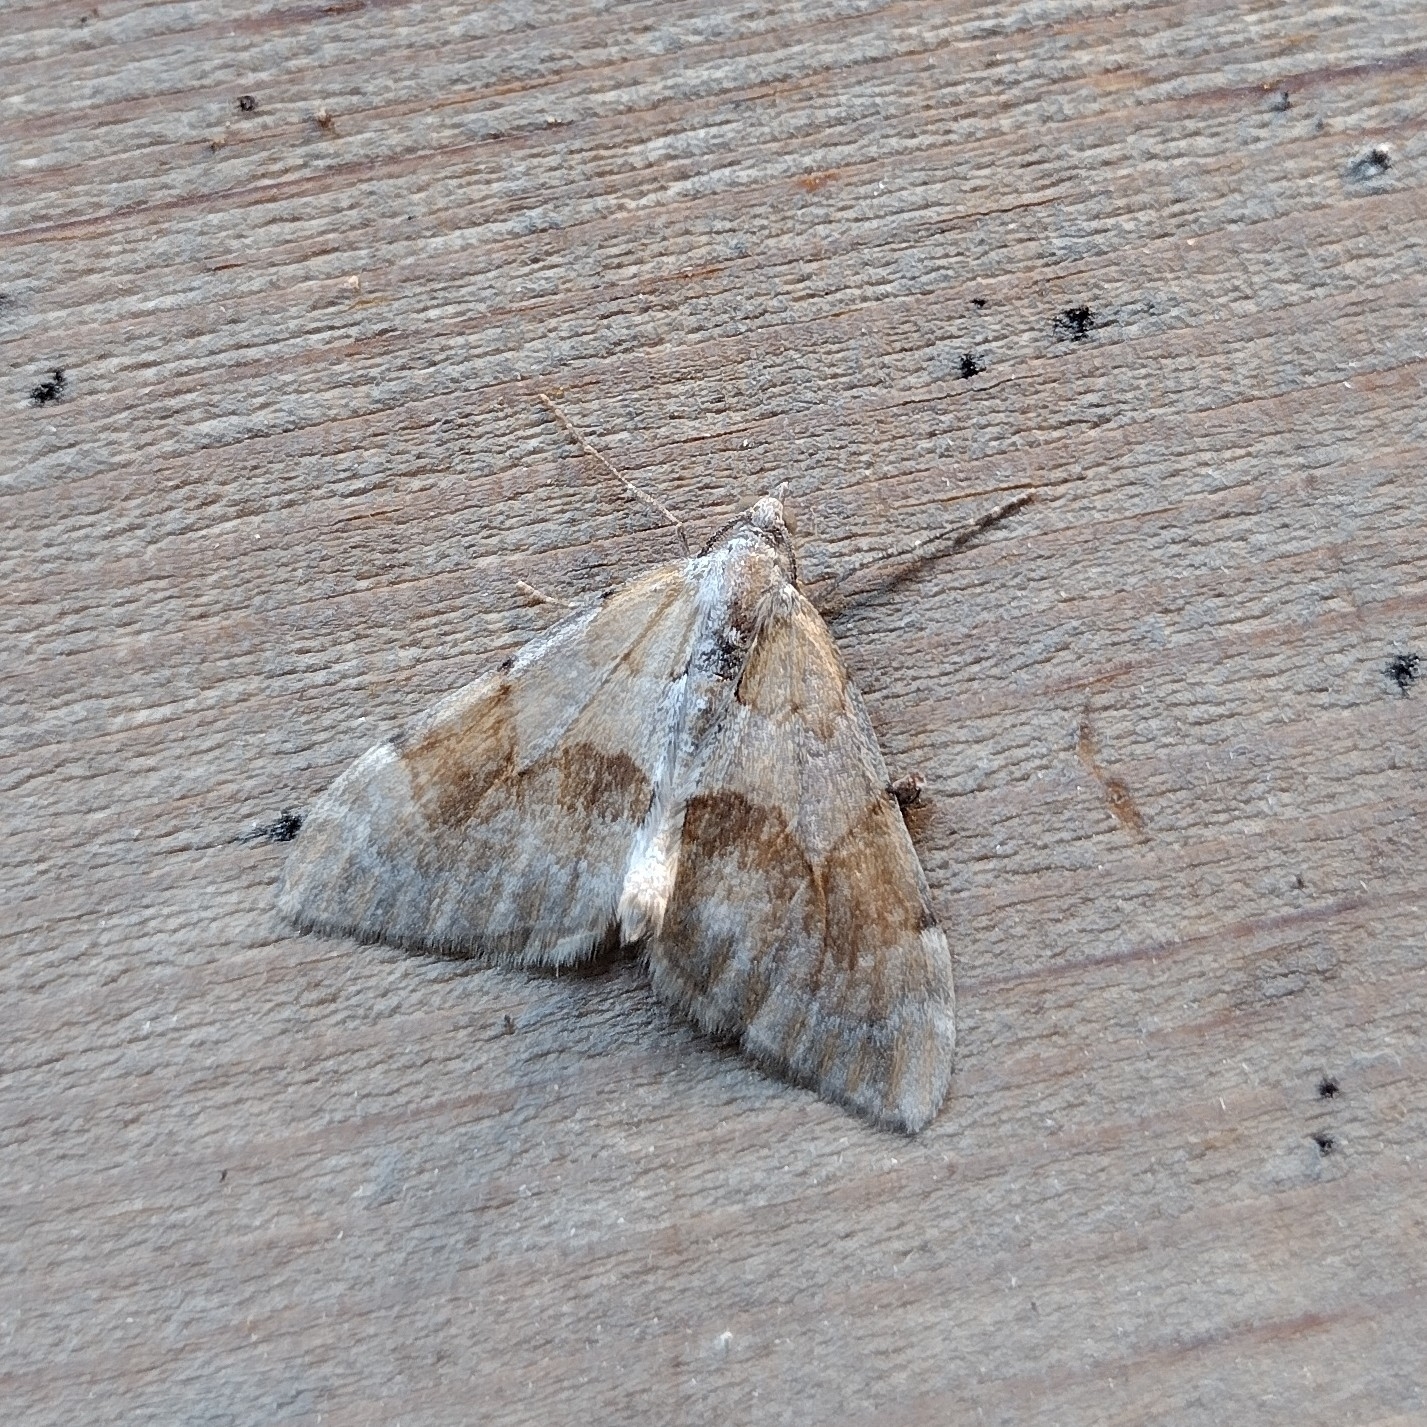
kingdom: Animalia
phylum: Arthropoda
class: Insecta
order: Lepidoptera
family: Geometridae
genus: Pennithera
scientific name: Pennithera firmata
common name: Pine carpet
